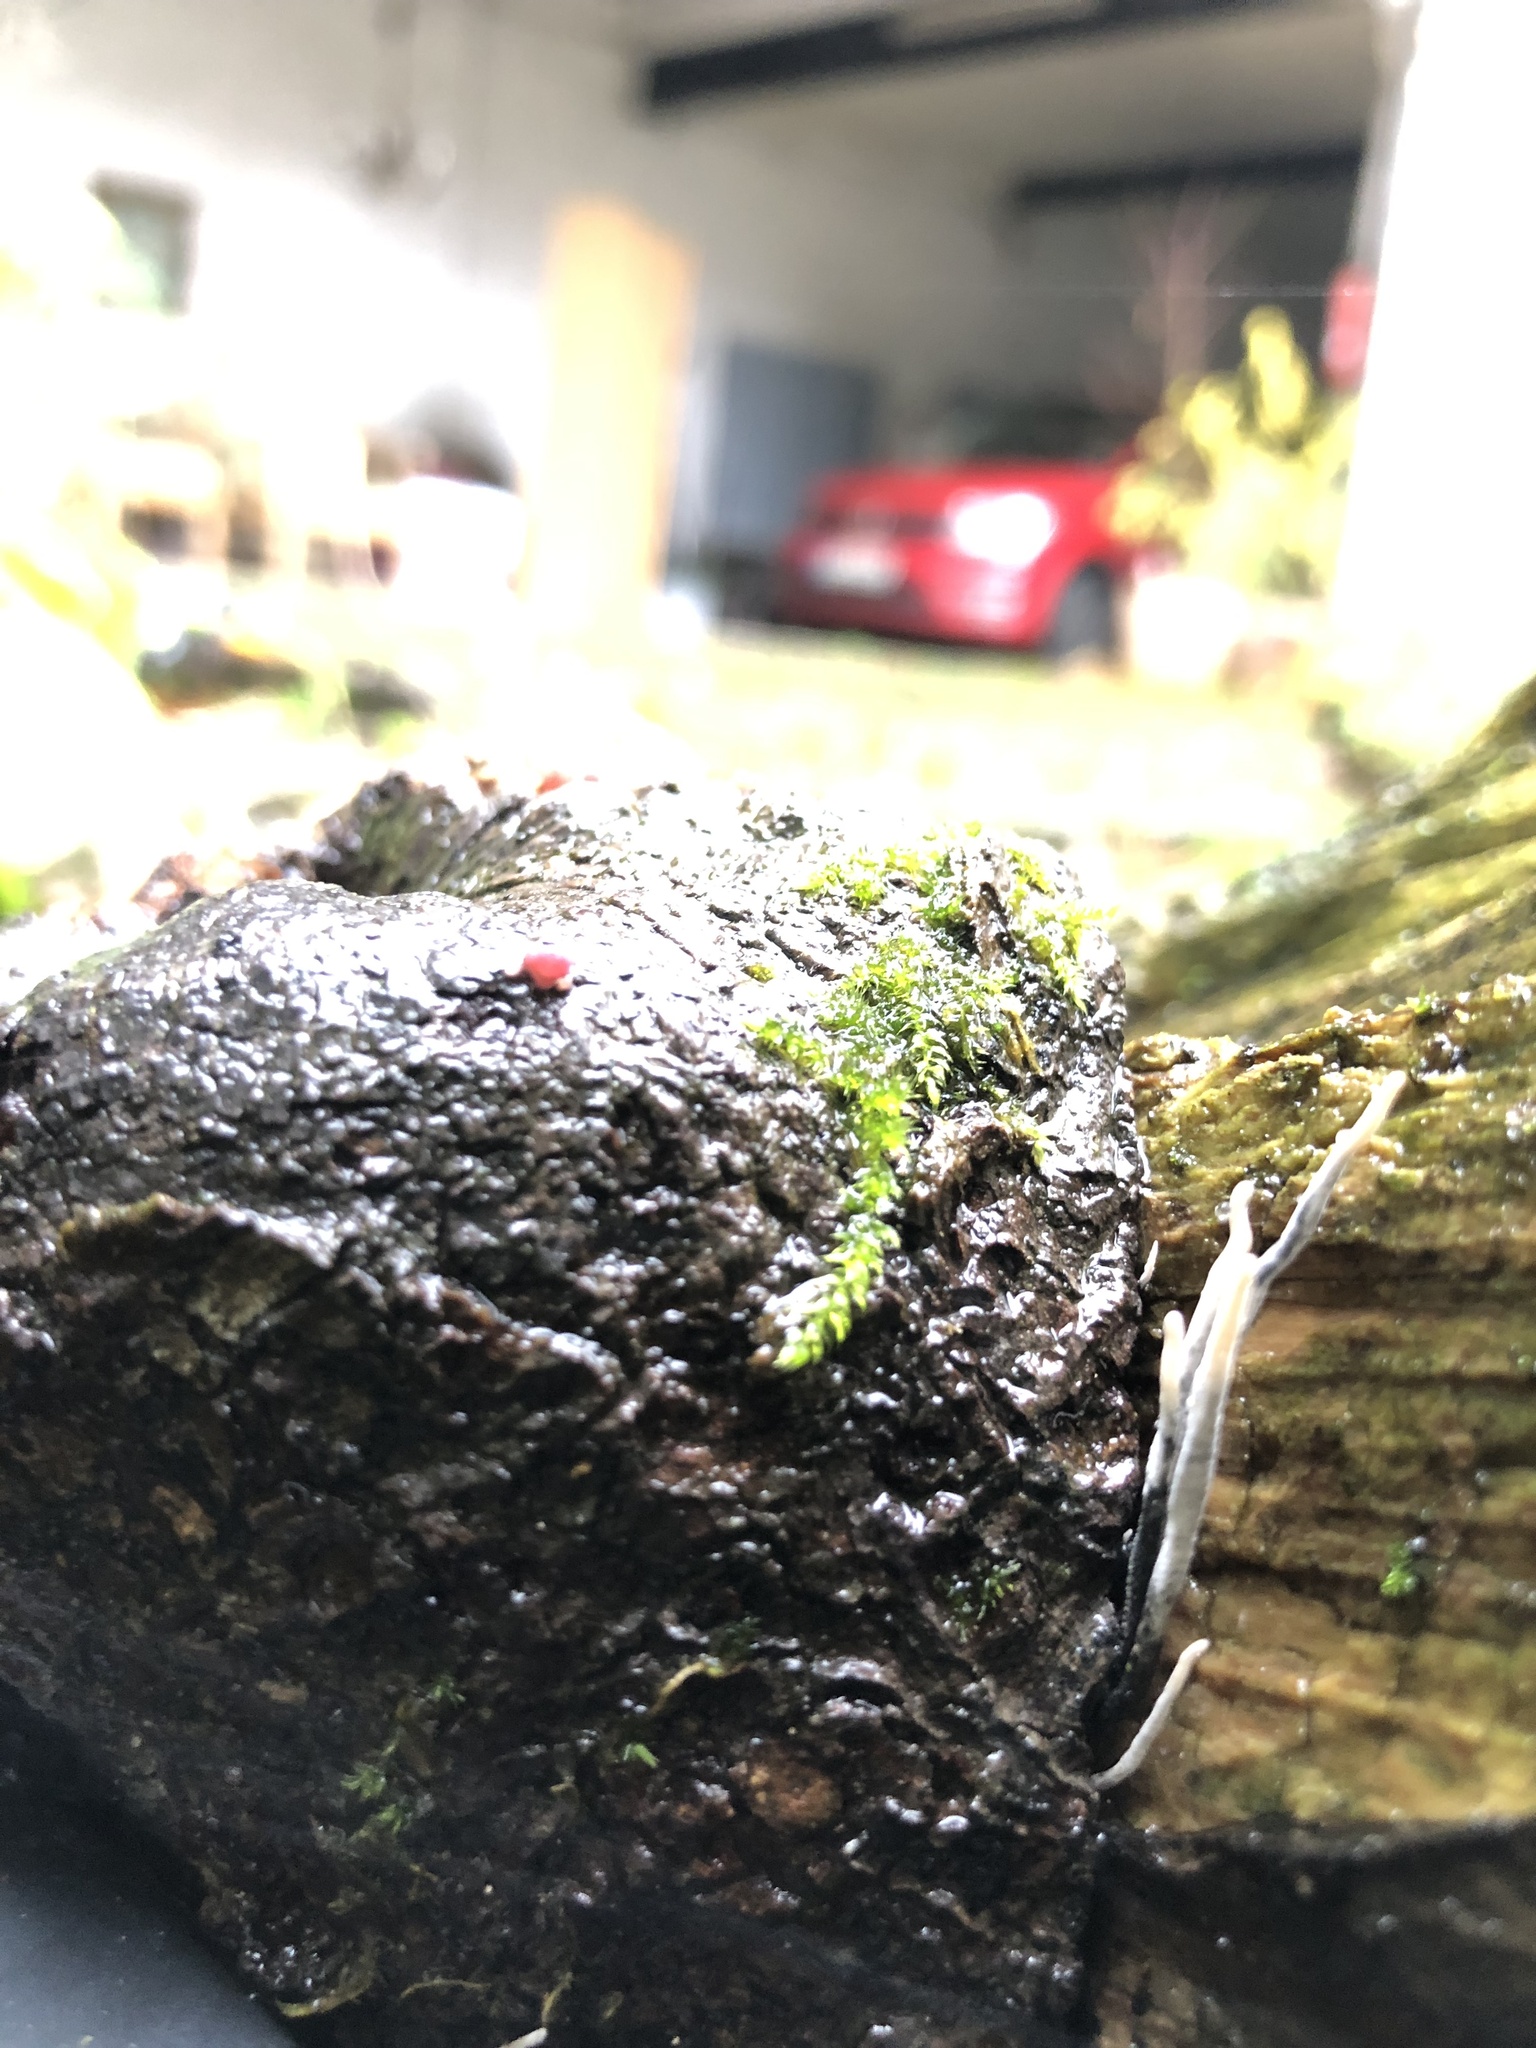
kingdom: Fungi
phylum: Ascomycota
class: Sordariomycetes
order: Xylariales
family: Xylariaceae
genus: Xylaria
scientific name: Xylaria hypoxylon
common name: Candle-snuff fungus
